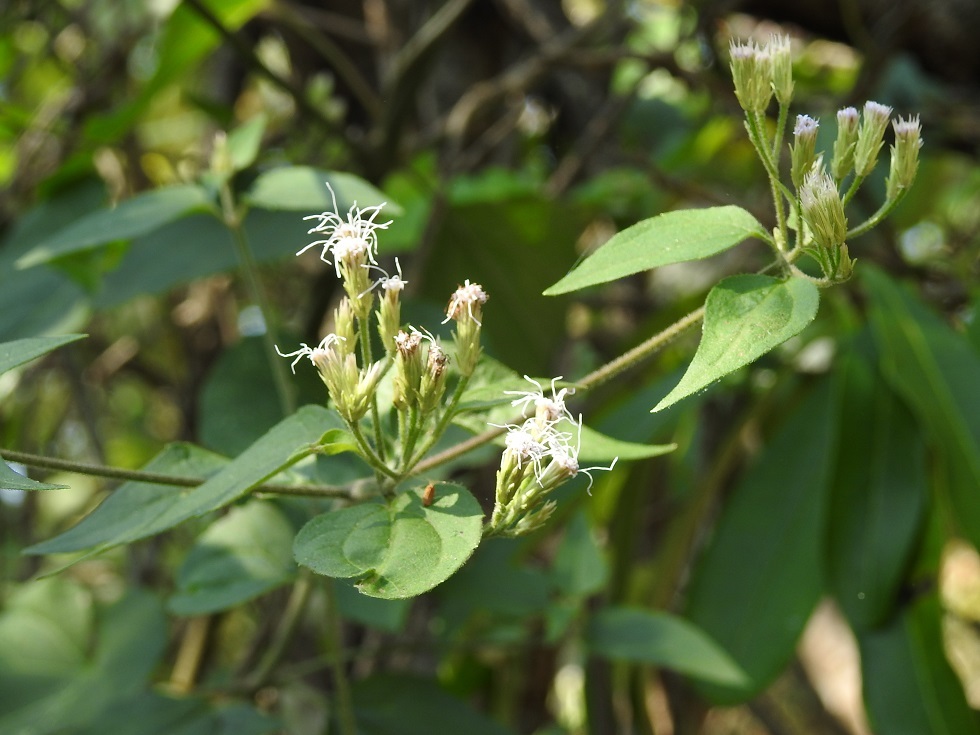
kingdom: Plantae
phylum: Tracheophyta
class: Magnoliopsida
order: Asterales
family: Asteraceae
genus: Chromolaena
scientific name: Chromolaena odorata
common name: Siamweed
